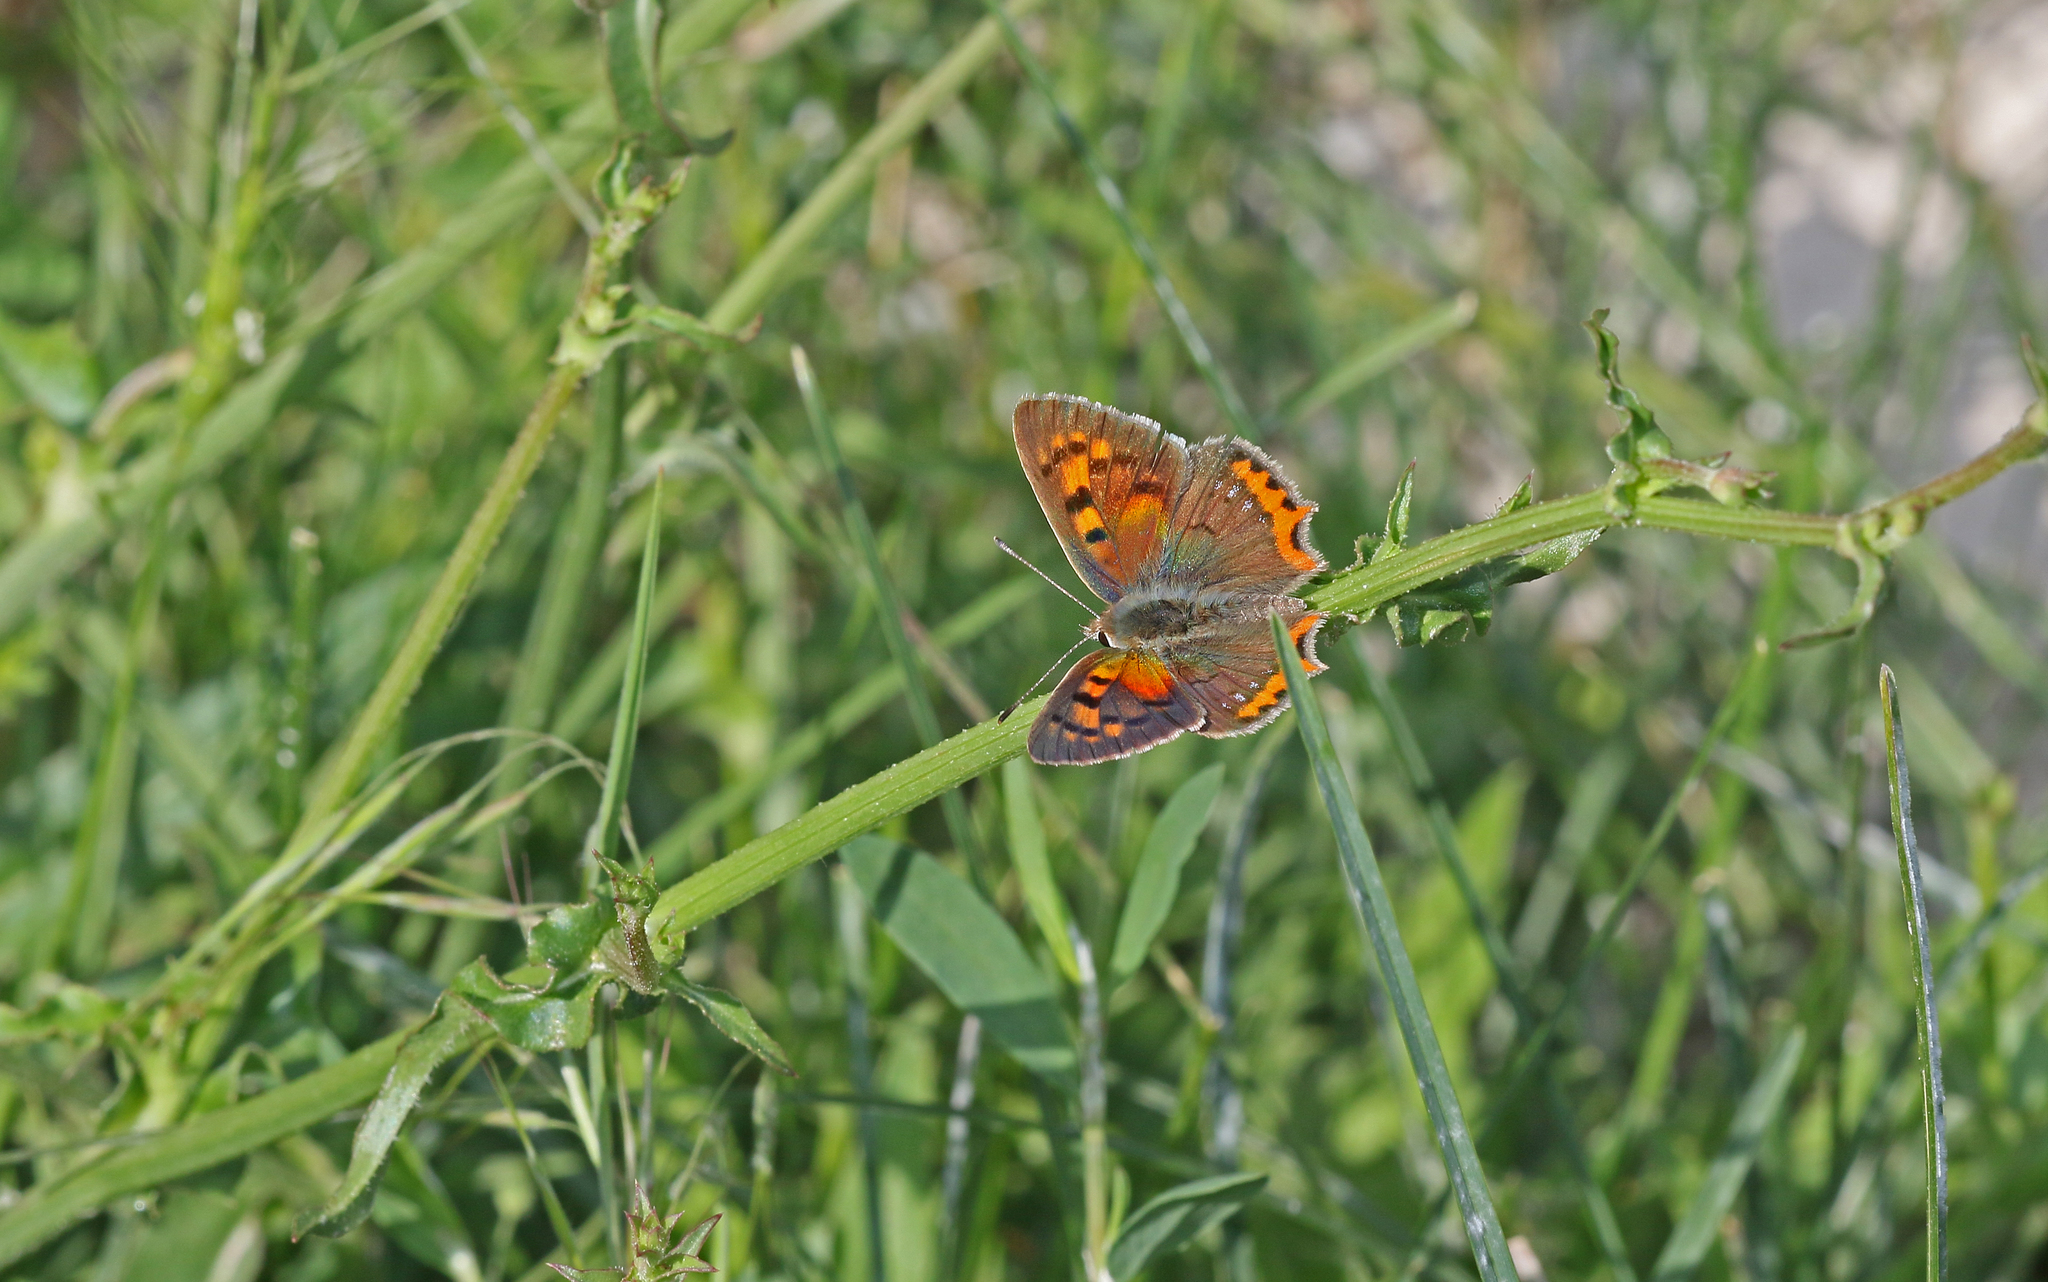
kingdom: Animalia
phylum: Arthropoda
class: Insecta
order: Lepidoptera
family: Lycaenidae
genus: Lycaena
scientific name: Lycaena phlaeas
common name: Small copper
